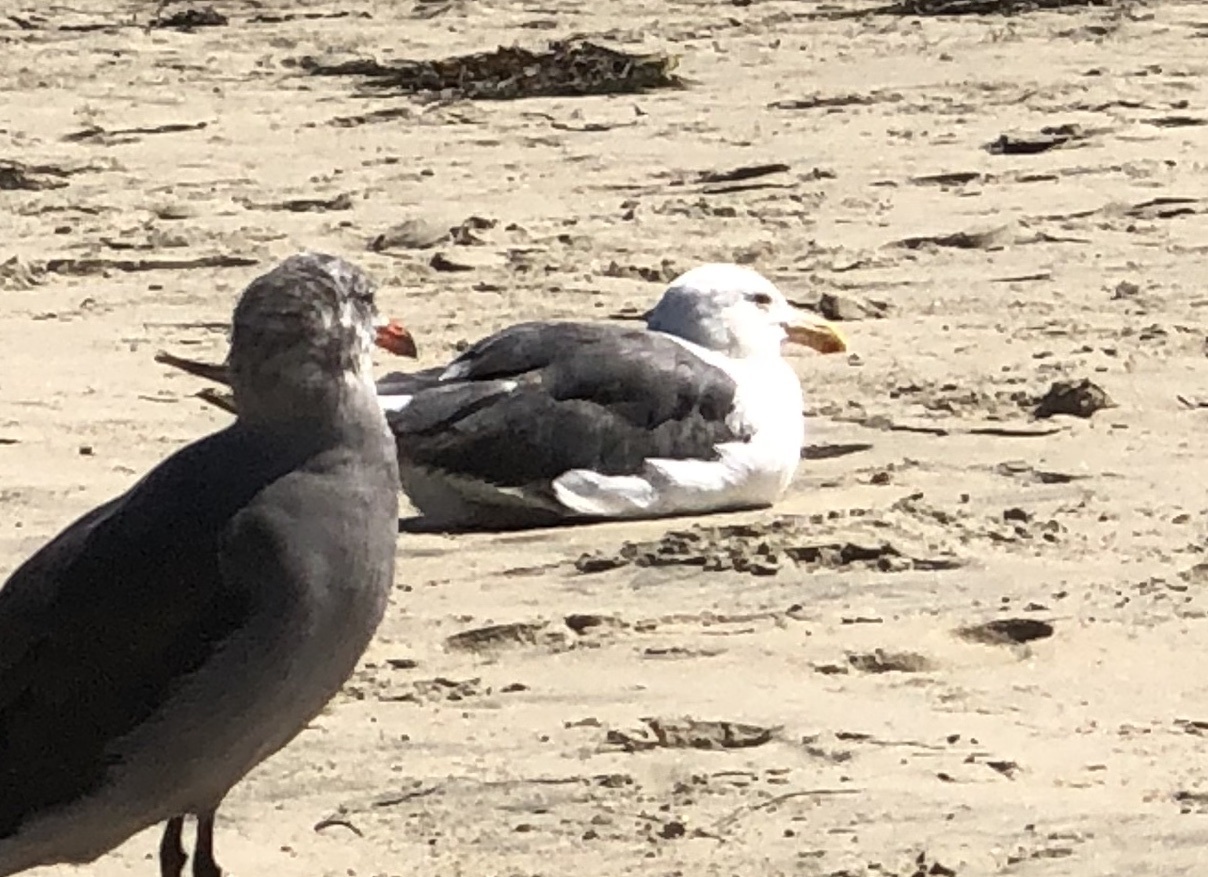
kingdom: Animalia
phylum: Chordata
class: Aves
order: Charadriiformes
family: Laridae
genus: Larus
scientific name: Larus occidentalis
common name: Western gull
